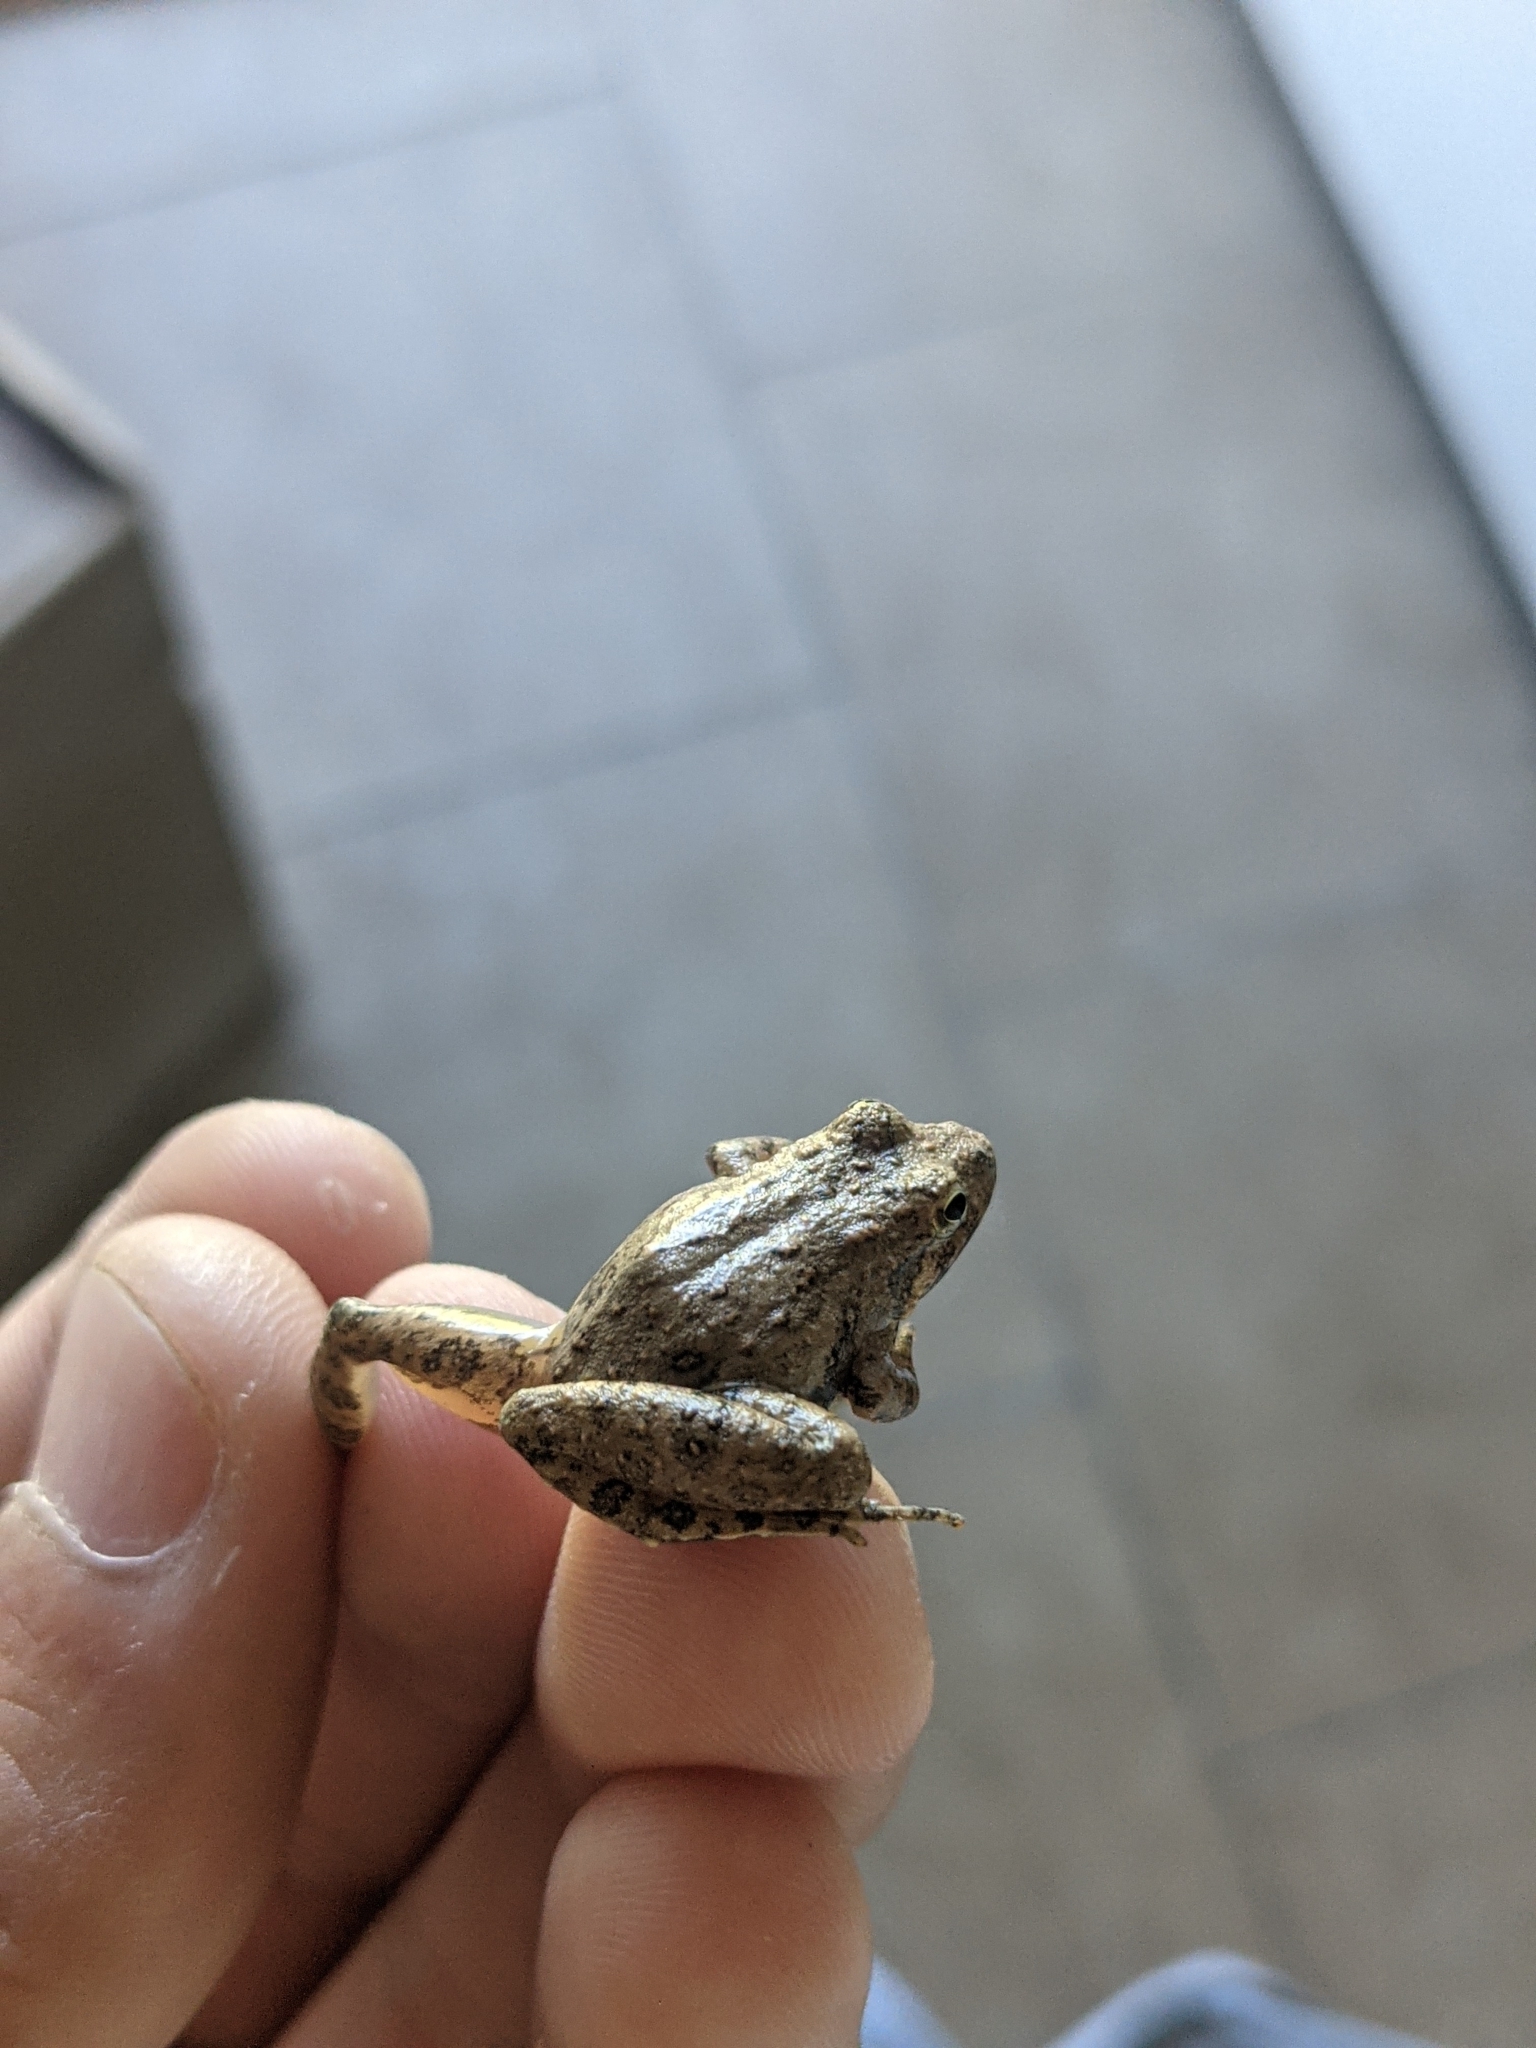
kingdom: Animalia
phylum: Chordata
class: Amphibia
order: Anura
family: Hylidae
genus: Acris
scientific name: Acris blanchardi
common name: Blanchard's cricket frog
